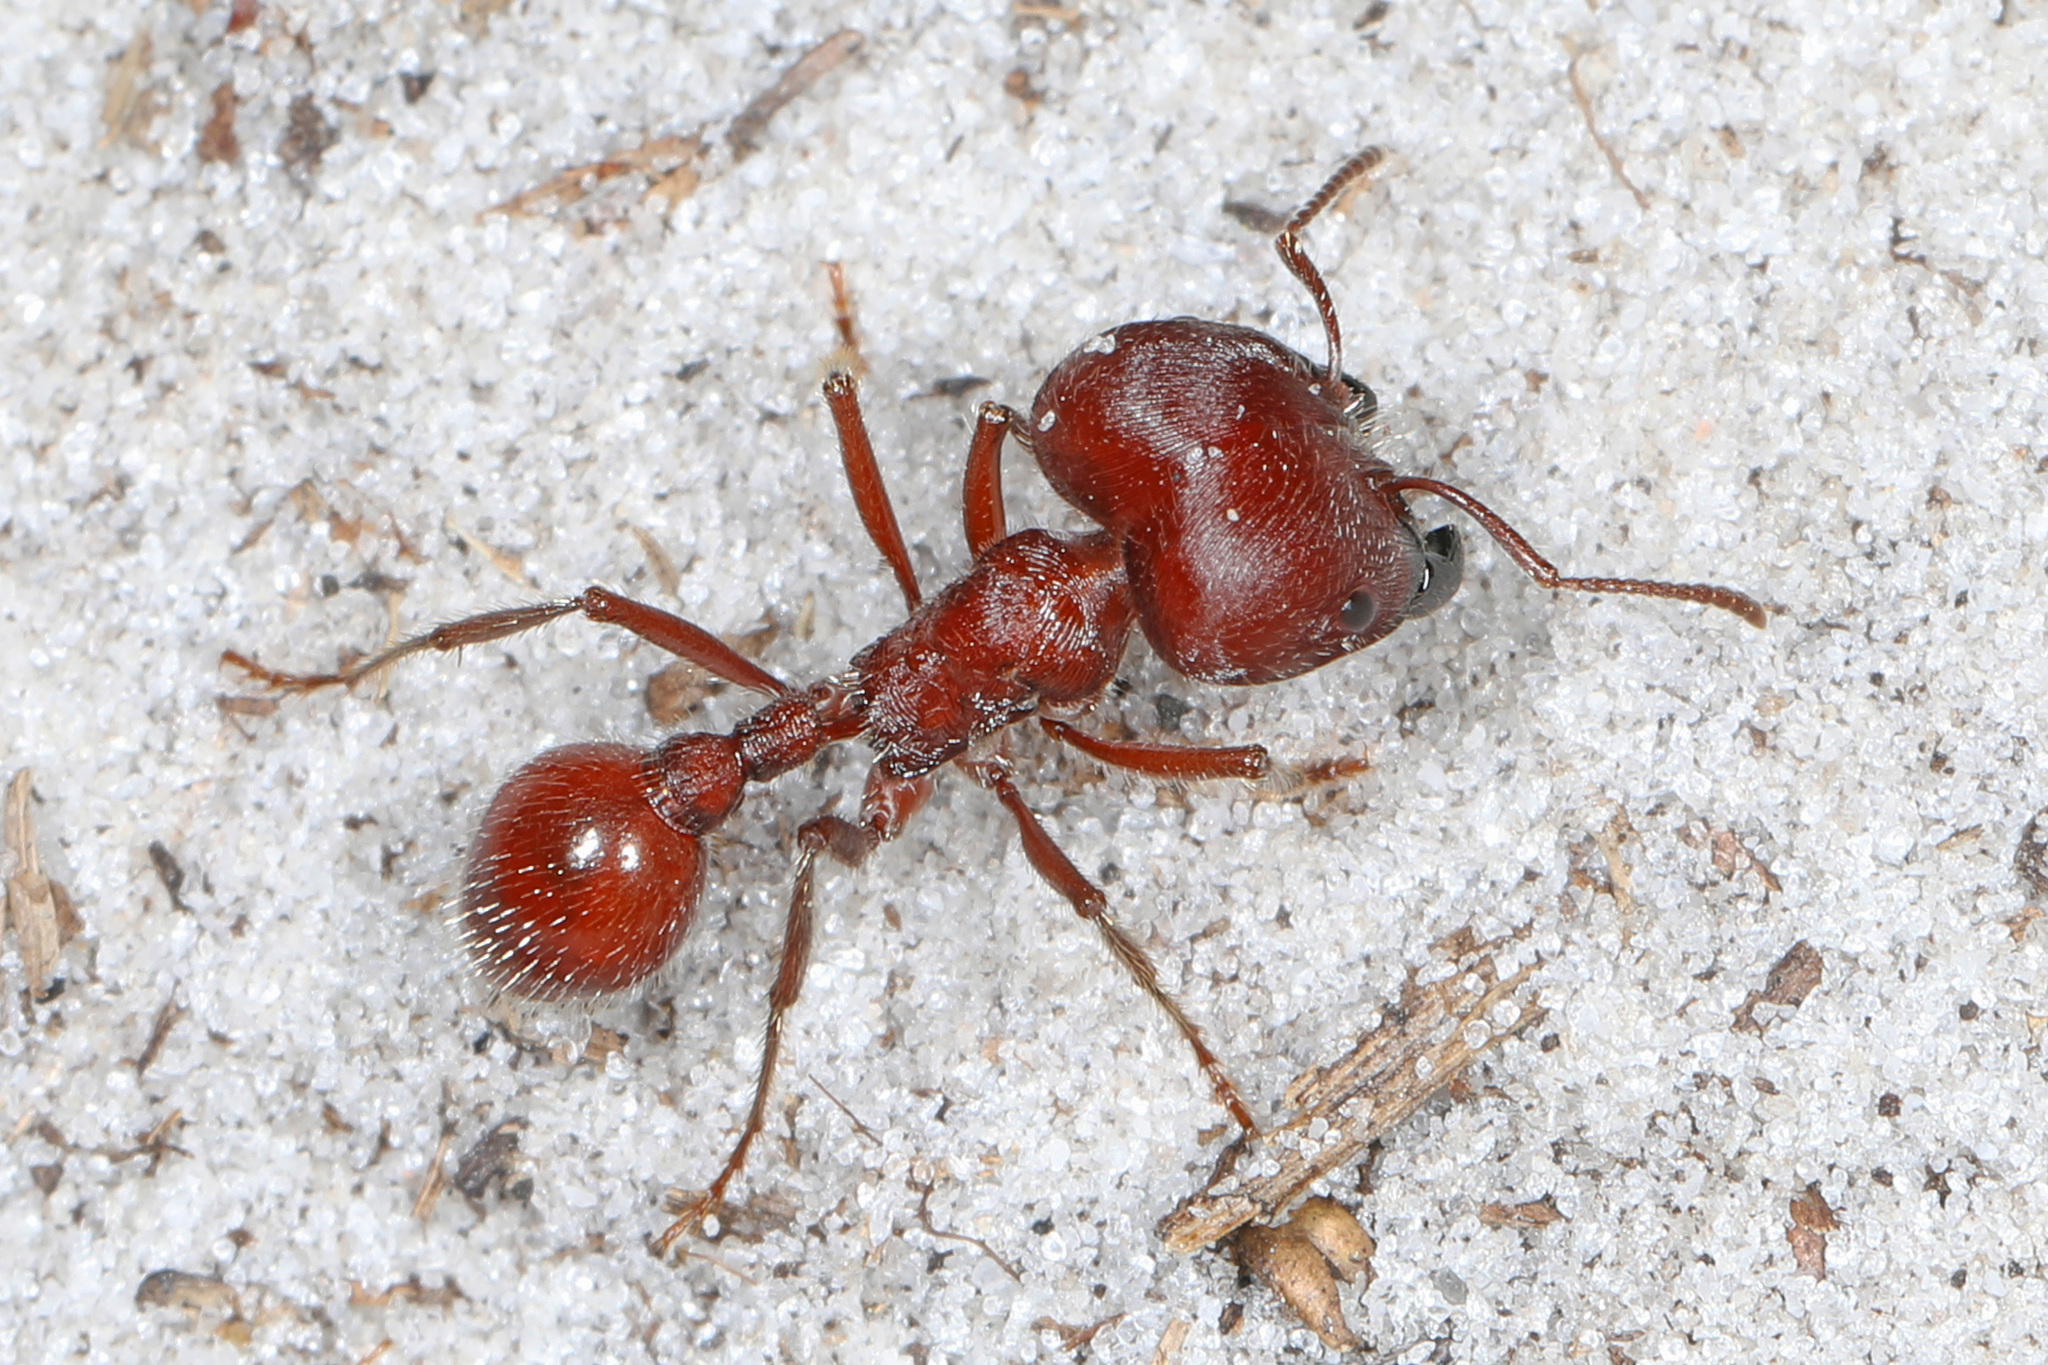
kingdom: Animalia
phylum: Arthropoda
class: Insecta
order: Hymenoptera
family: Formicidae
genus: Pogonomyrmex
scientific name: Pogonomyrmex badius
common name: Florida harvester ant
